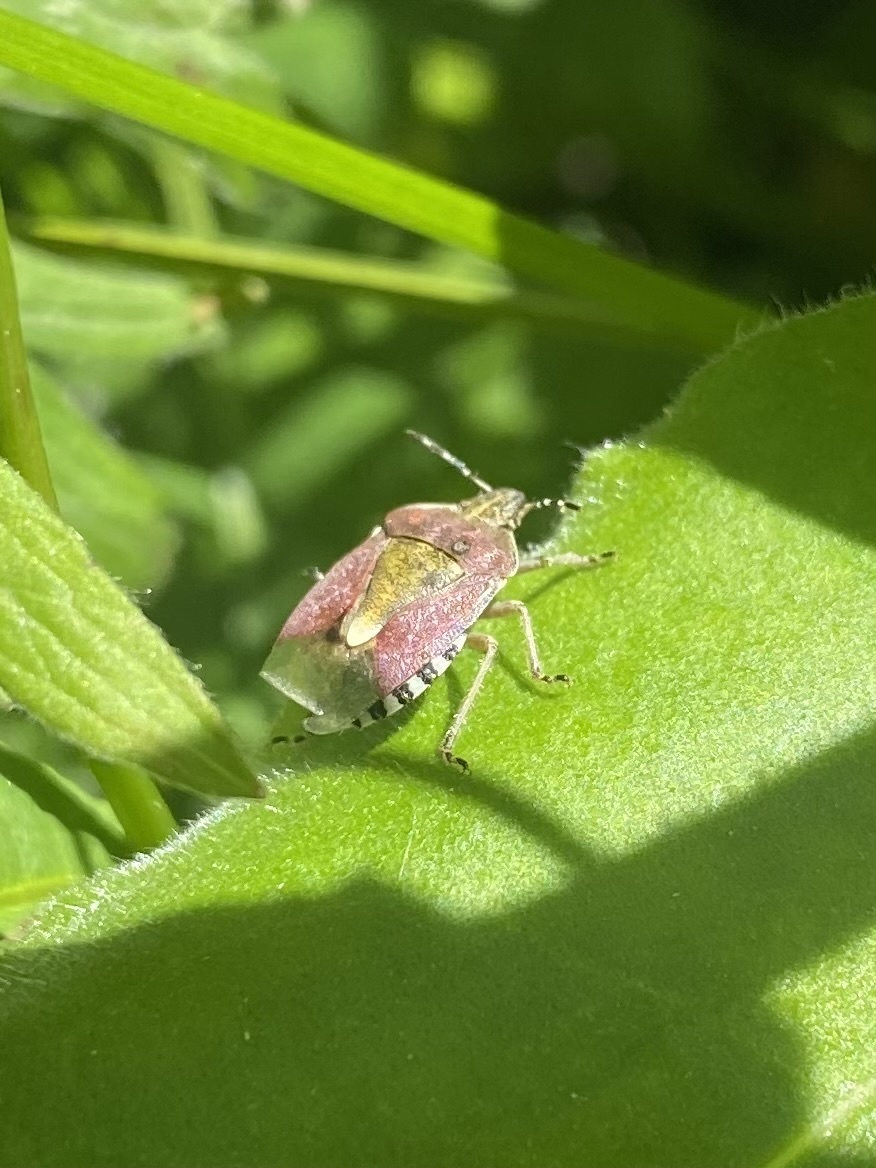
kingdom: Animalia
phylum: Arthropoda
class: Insecta
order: Hemiptera
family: Pentatomidae
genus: Dolycoris
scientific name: Dolycoris baccarum
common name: Sloe bug
